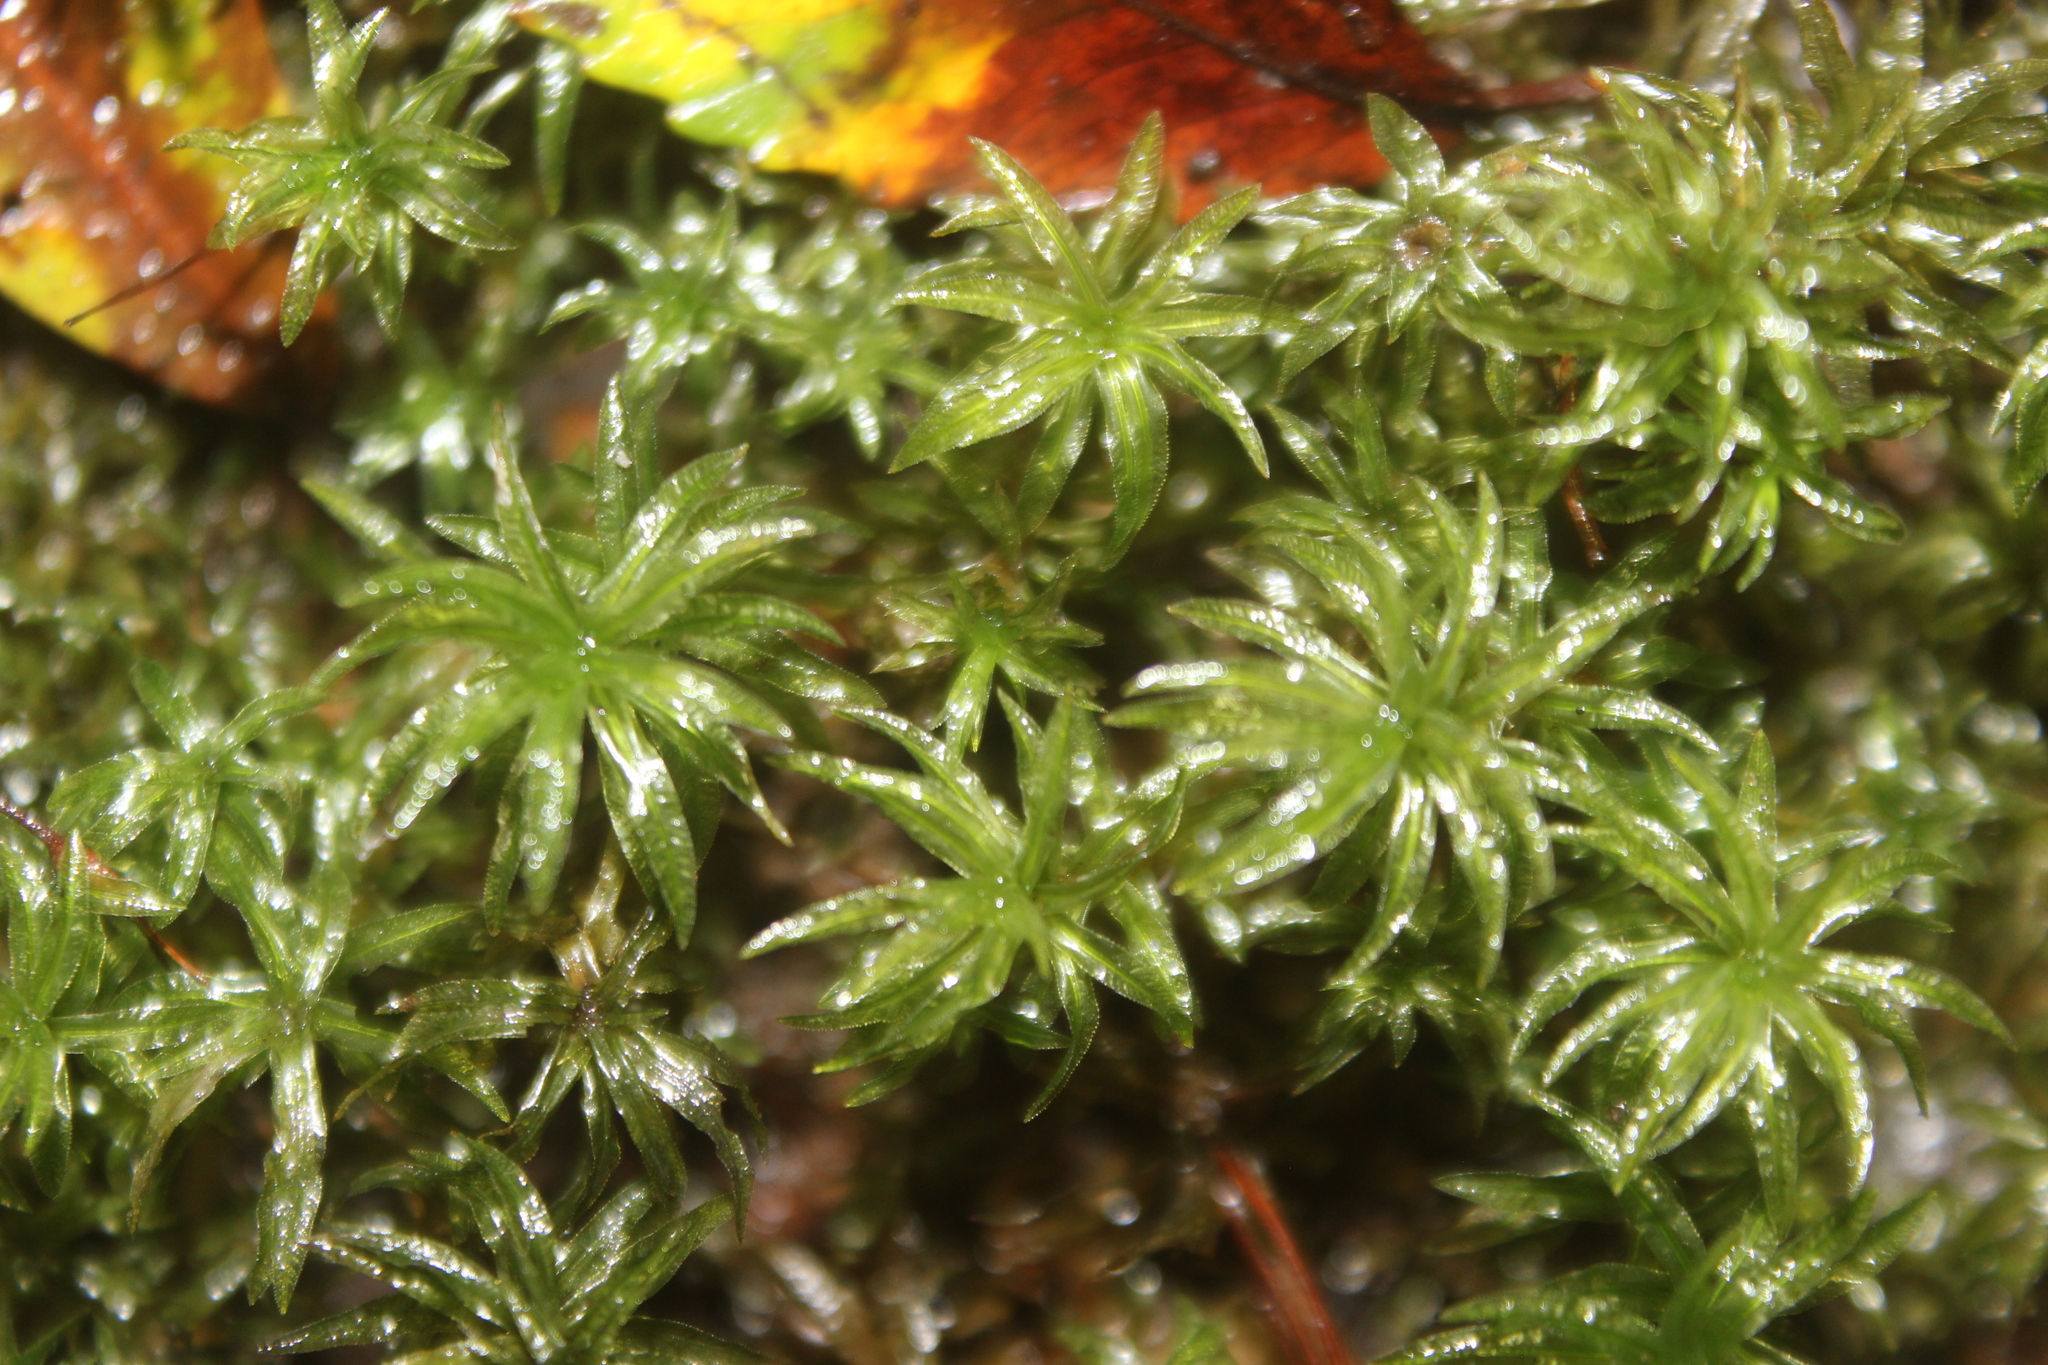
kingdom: Plantae
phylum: Bryophyta
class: Polytrichopsida
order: Polytrichales
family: Polytrichaceae
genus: Atrichum
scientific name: Atrichum androgynum
